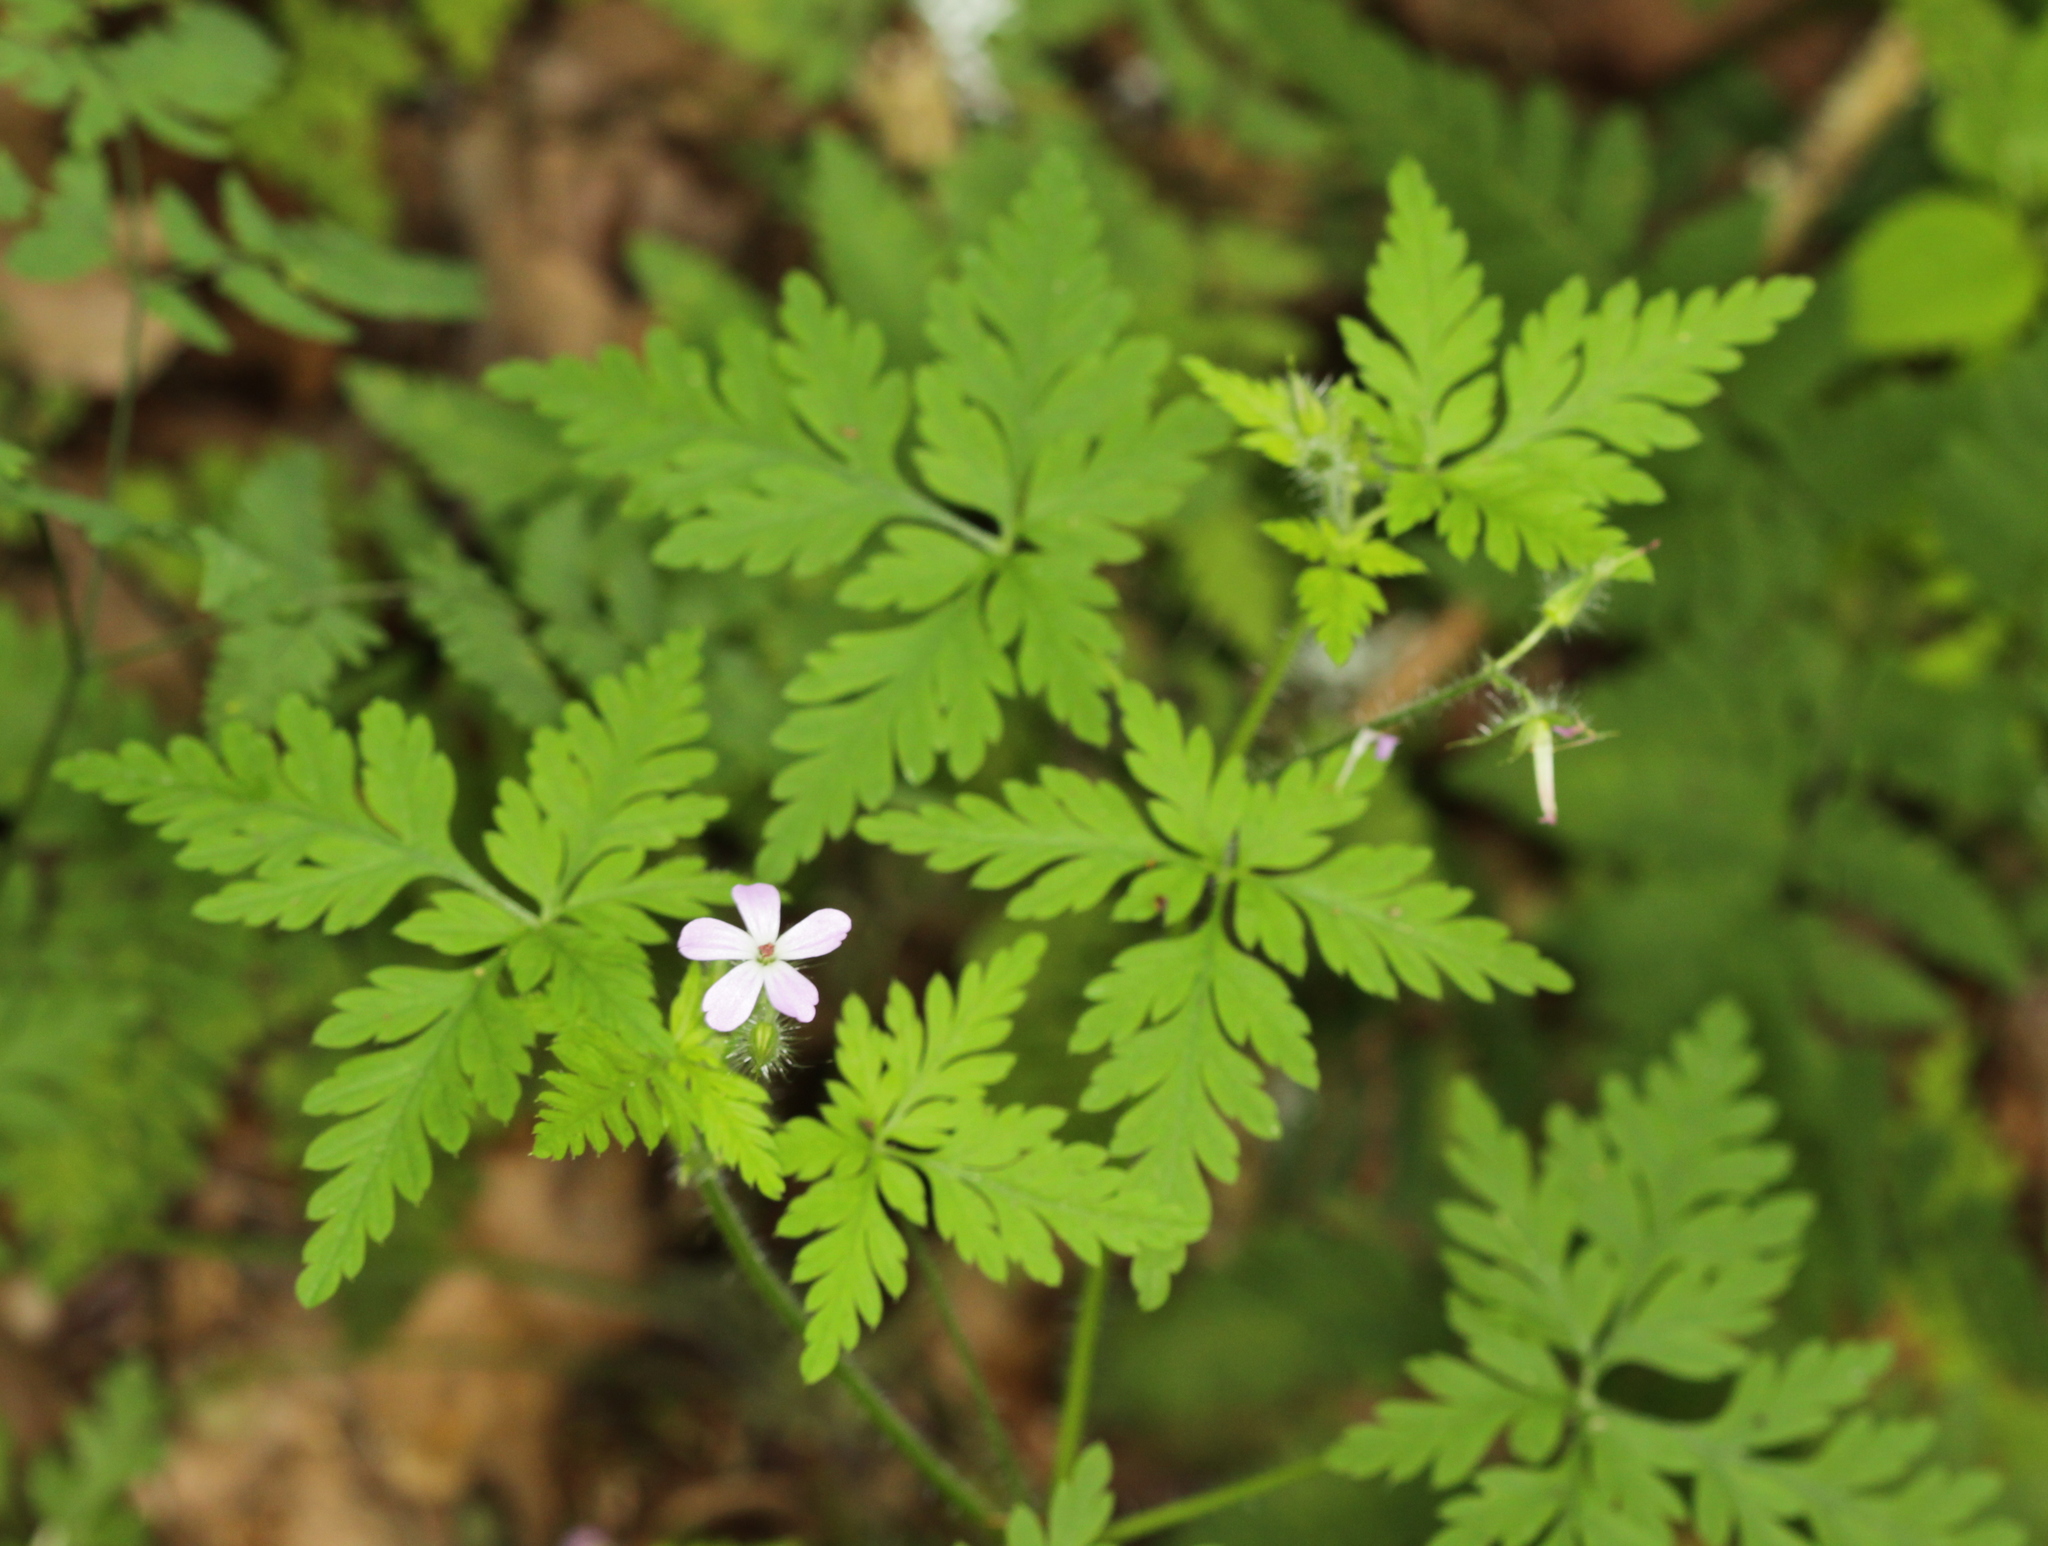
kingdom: Plantae
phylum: Tracheophyta
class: Magnoliopsida
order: Geraniales
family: Geraniaceae
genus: Geranium
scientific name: Geranium robertianum
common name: Herb-robert
